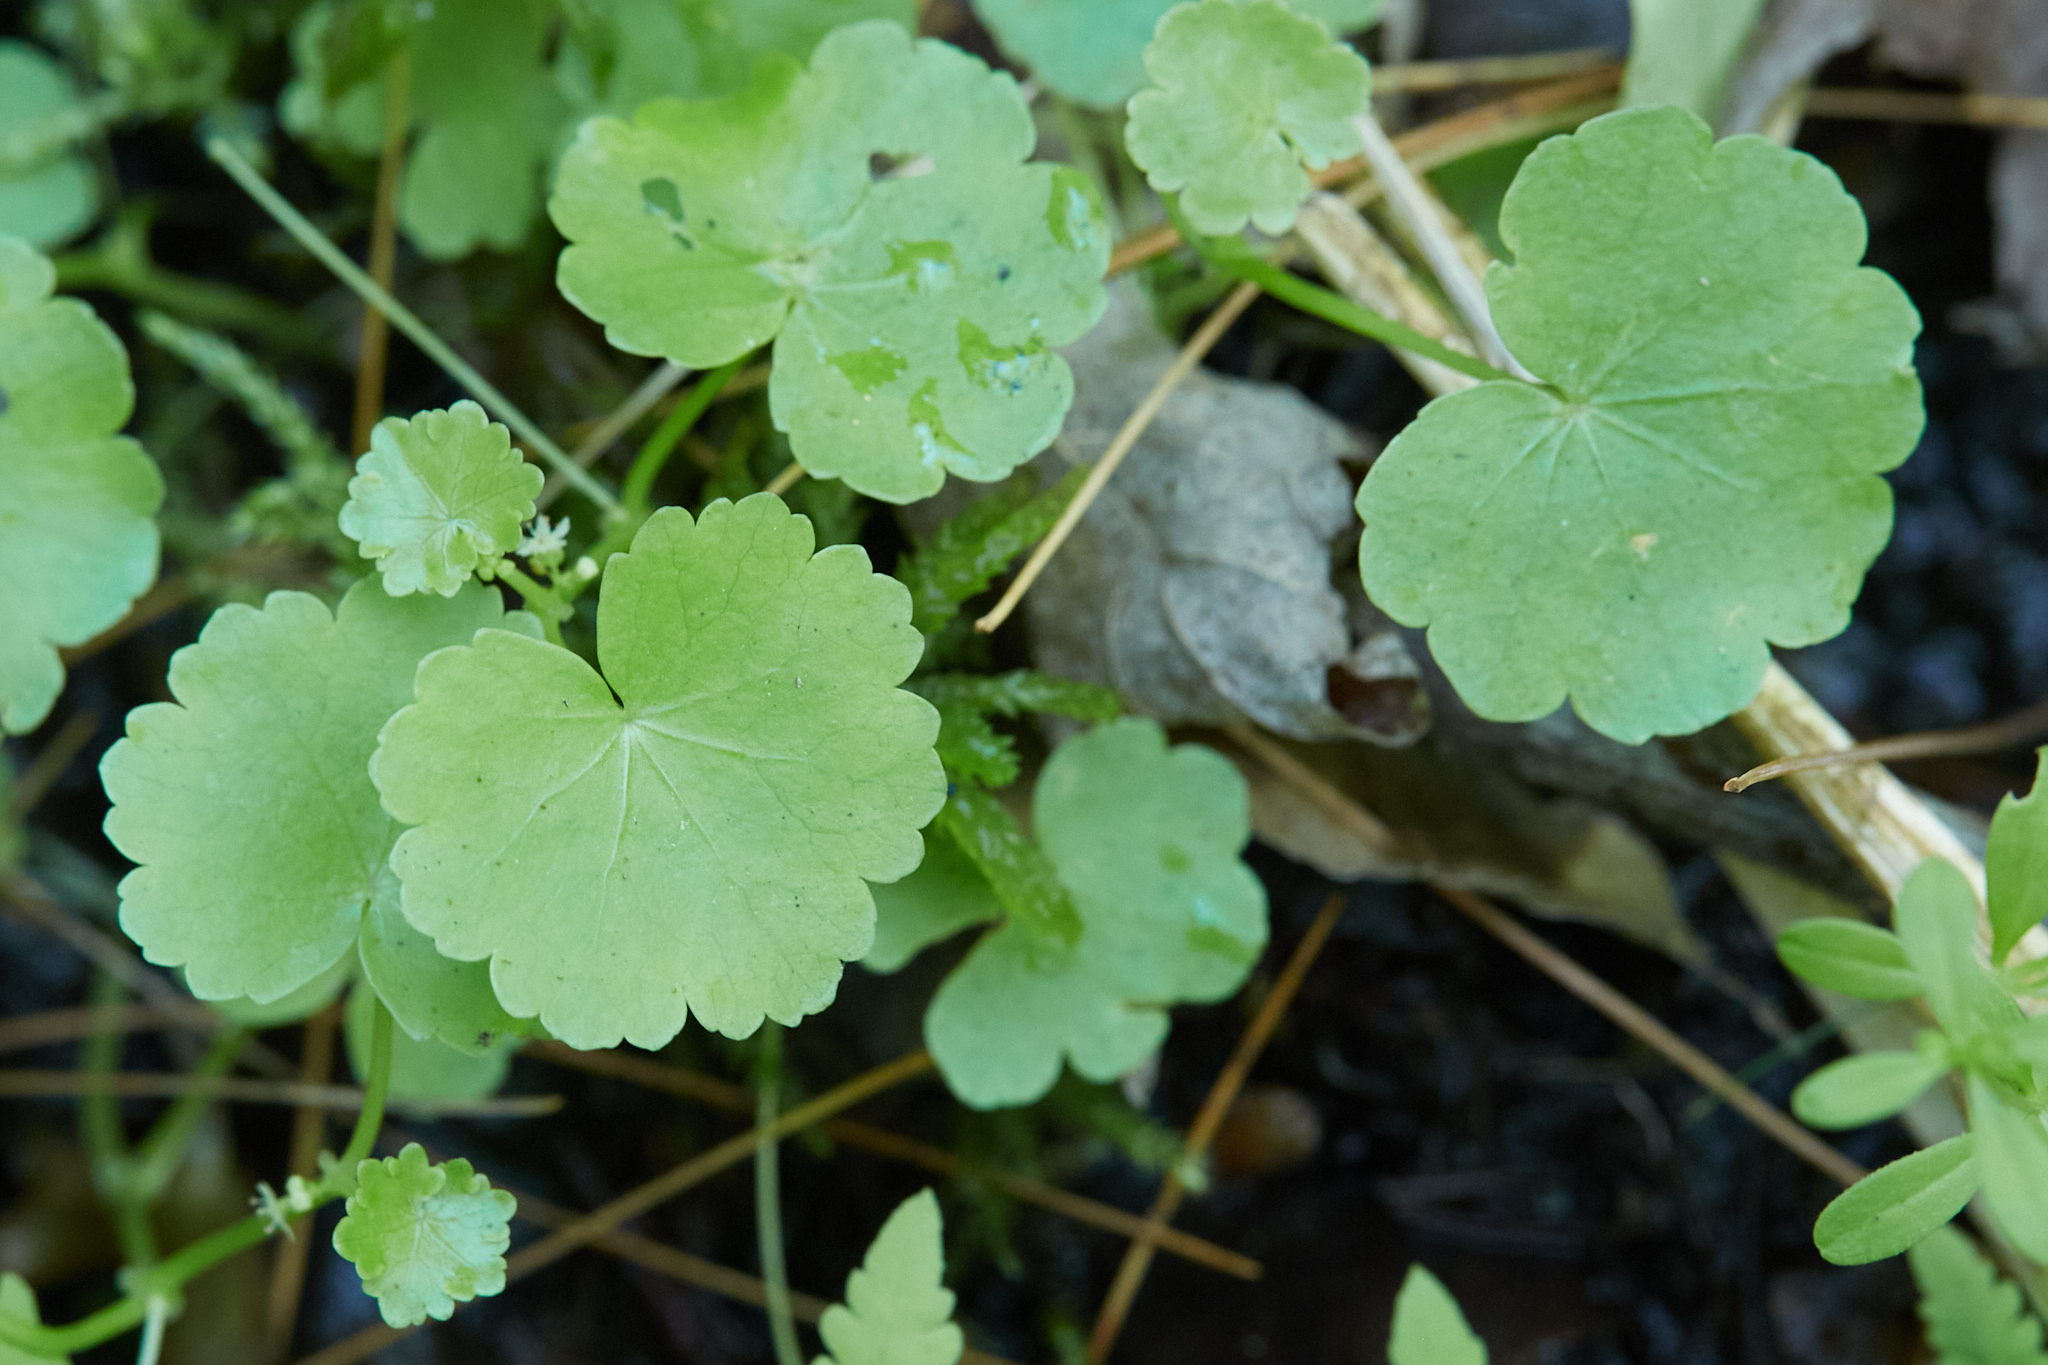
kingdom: Plantae
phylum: Tracheophyta
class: Magnoliopsida
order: Apiales
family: Araliaceae
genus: Hydrocotyle
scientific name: Hydrocotyle americana
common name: American water-pennywort
